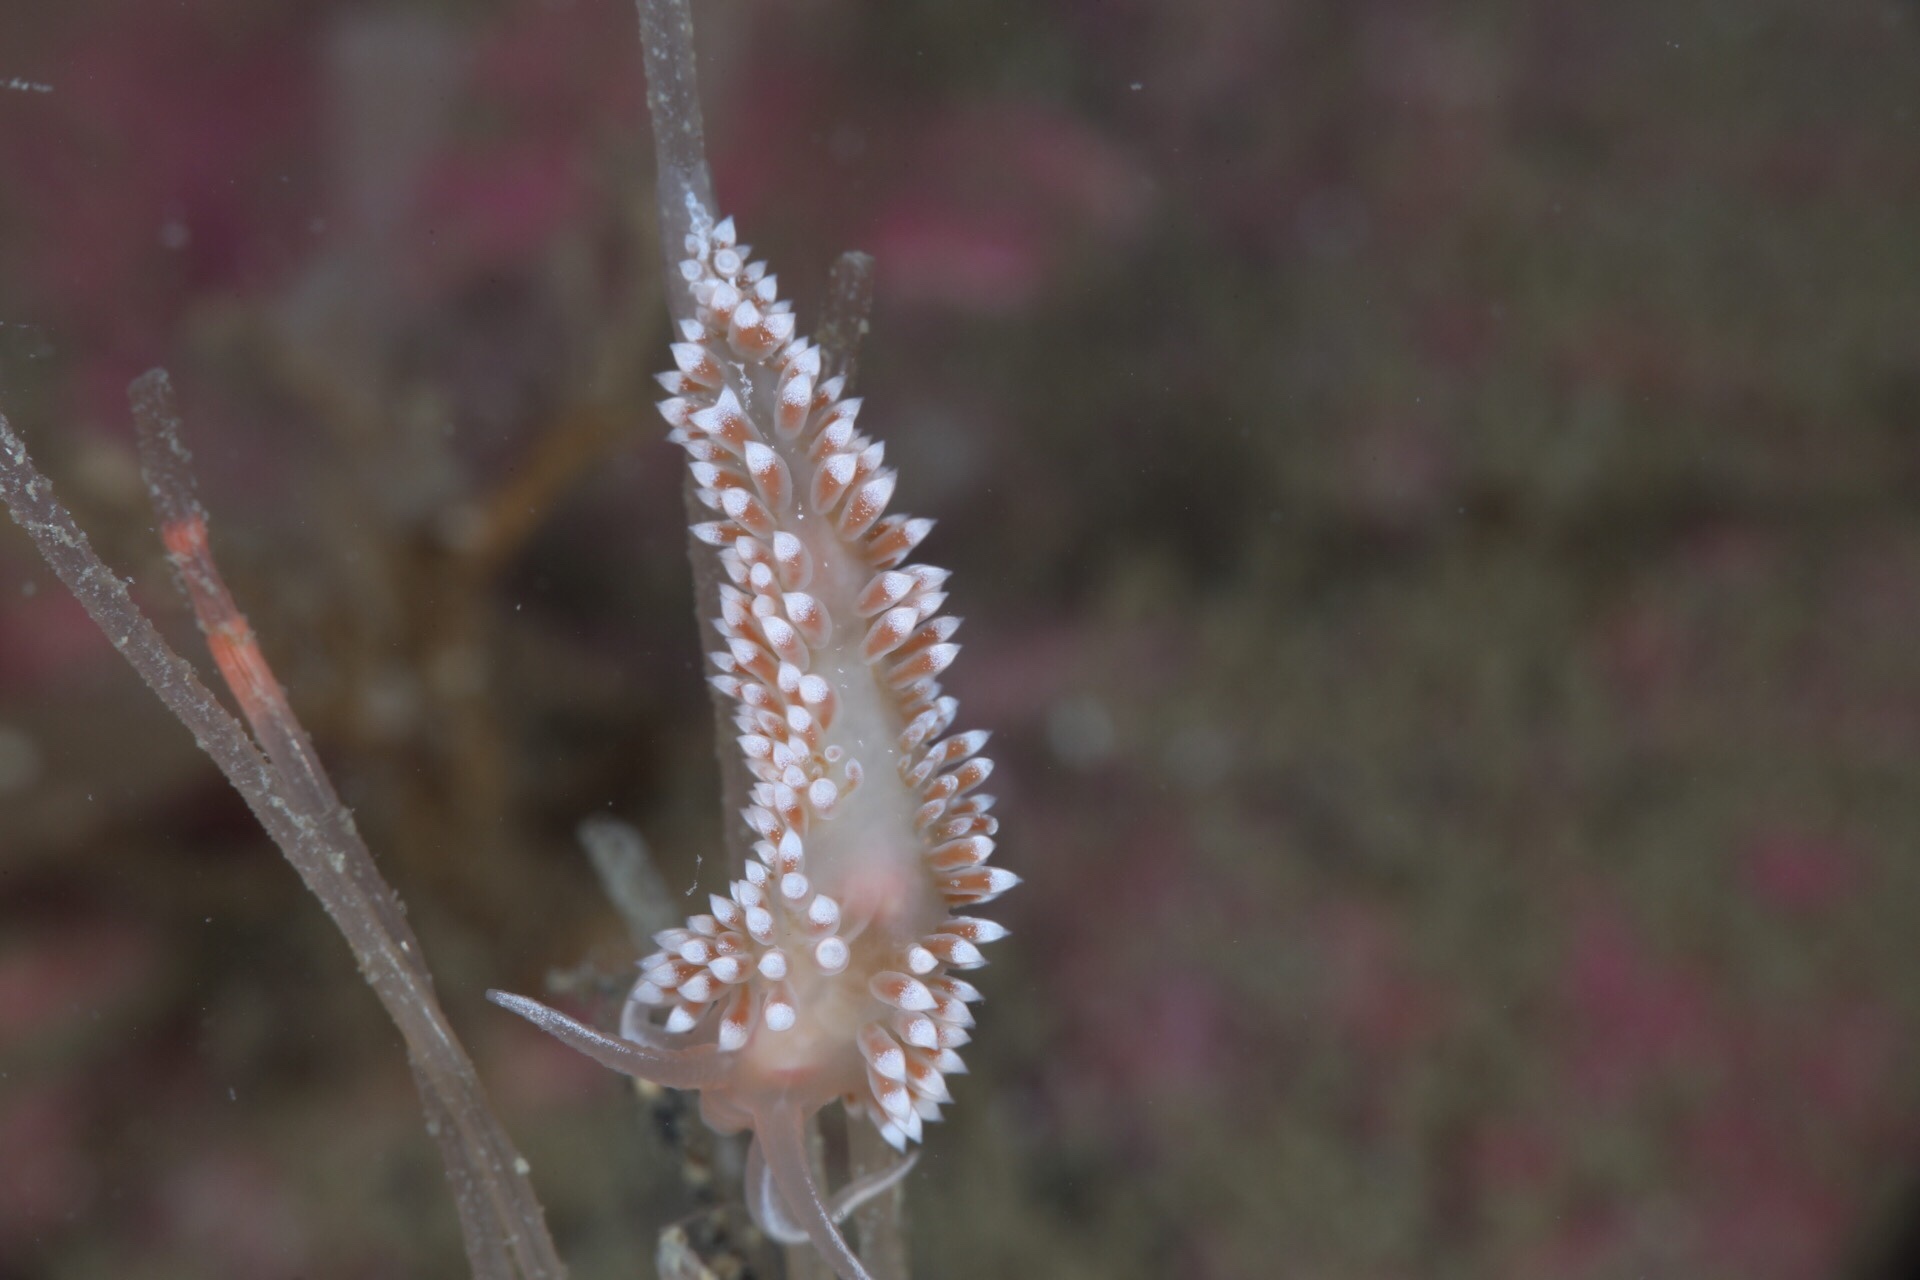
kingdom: Animalia
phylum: Mollusca
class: Gastropoda
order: Nudibranchia
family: Coryphellidae
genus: Coryphella
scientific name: Coryphella verrucosa
